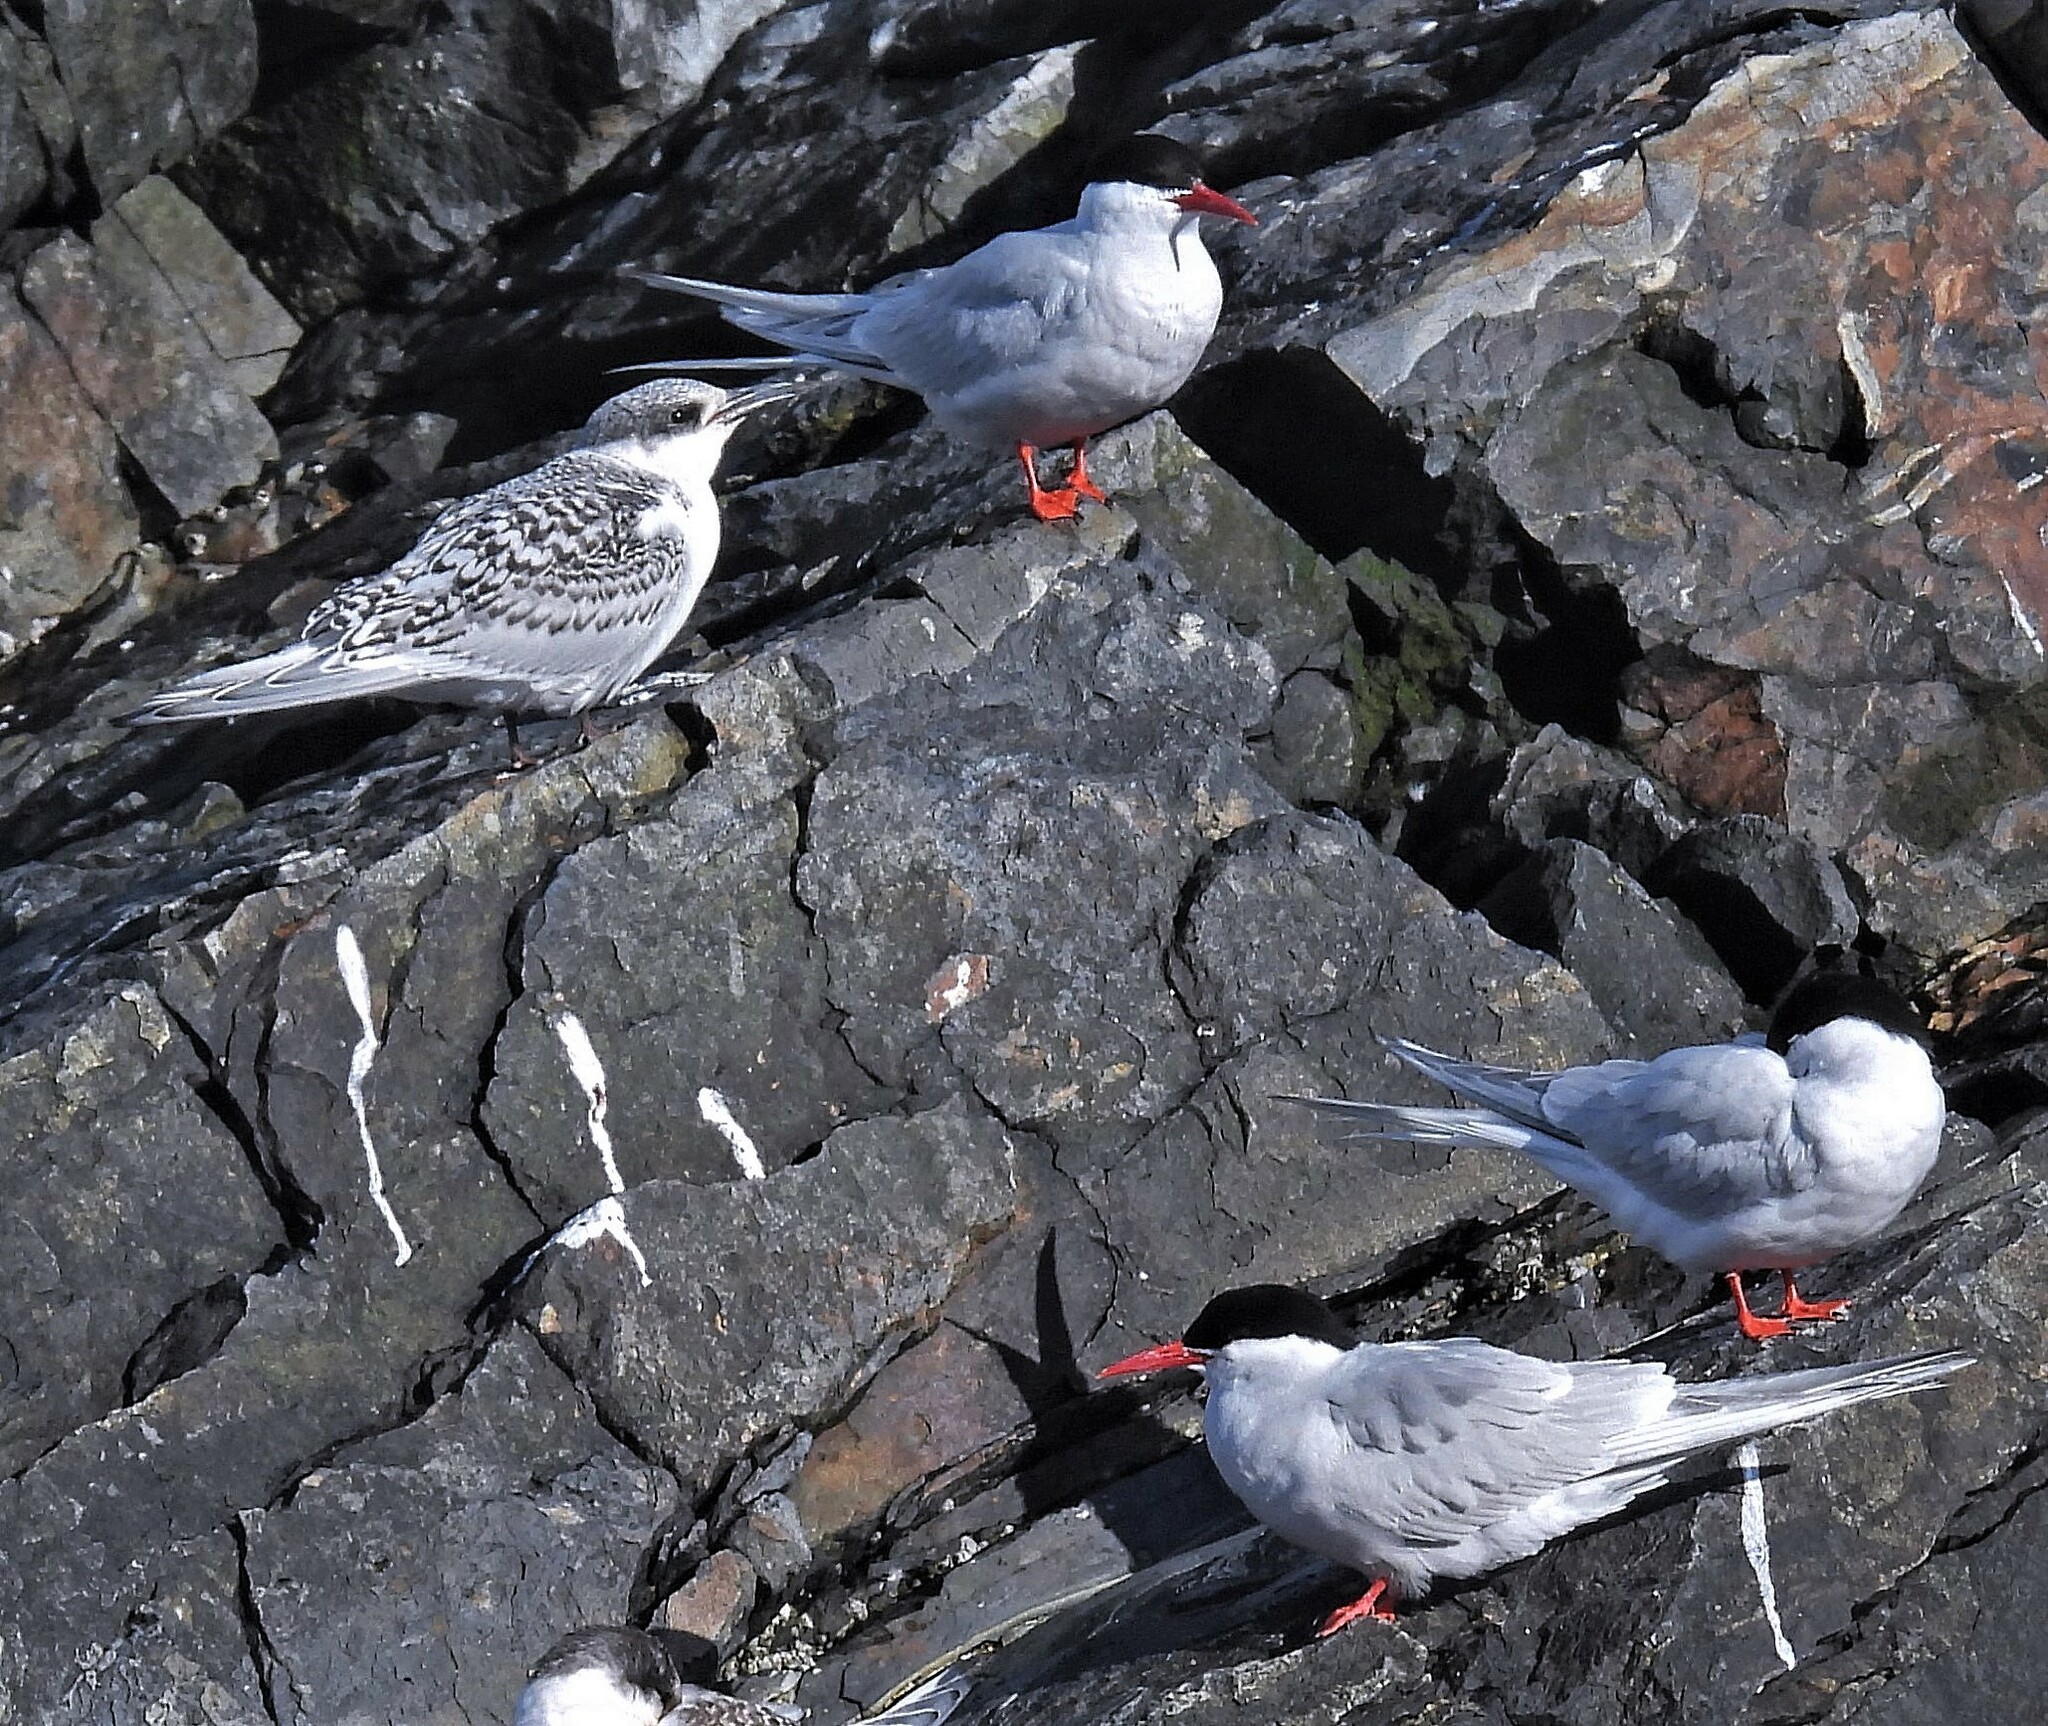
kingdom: Animalia
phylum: Chordata
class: Aves
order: Charadriiformes
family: Laridae
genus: Sterna
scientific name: Sterna hirundinacea
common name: South american tern
